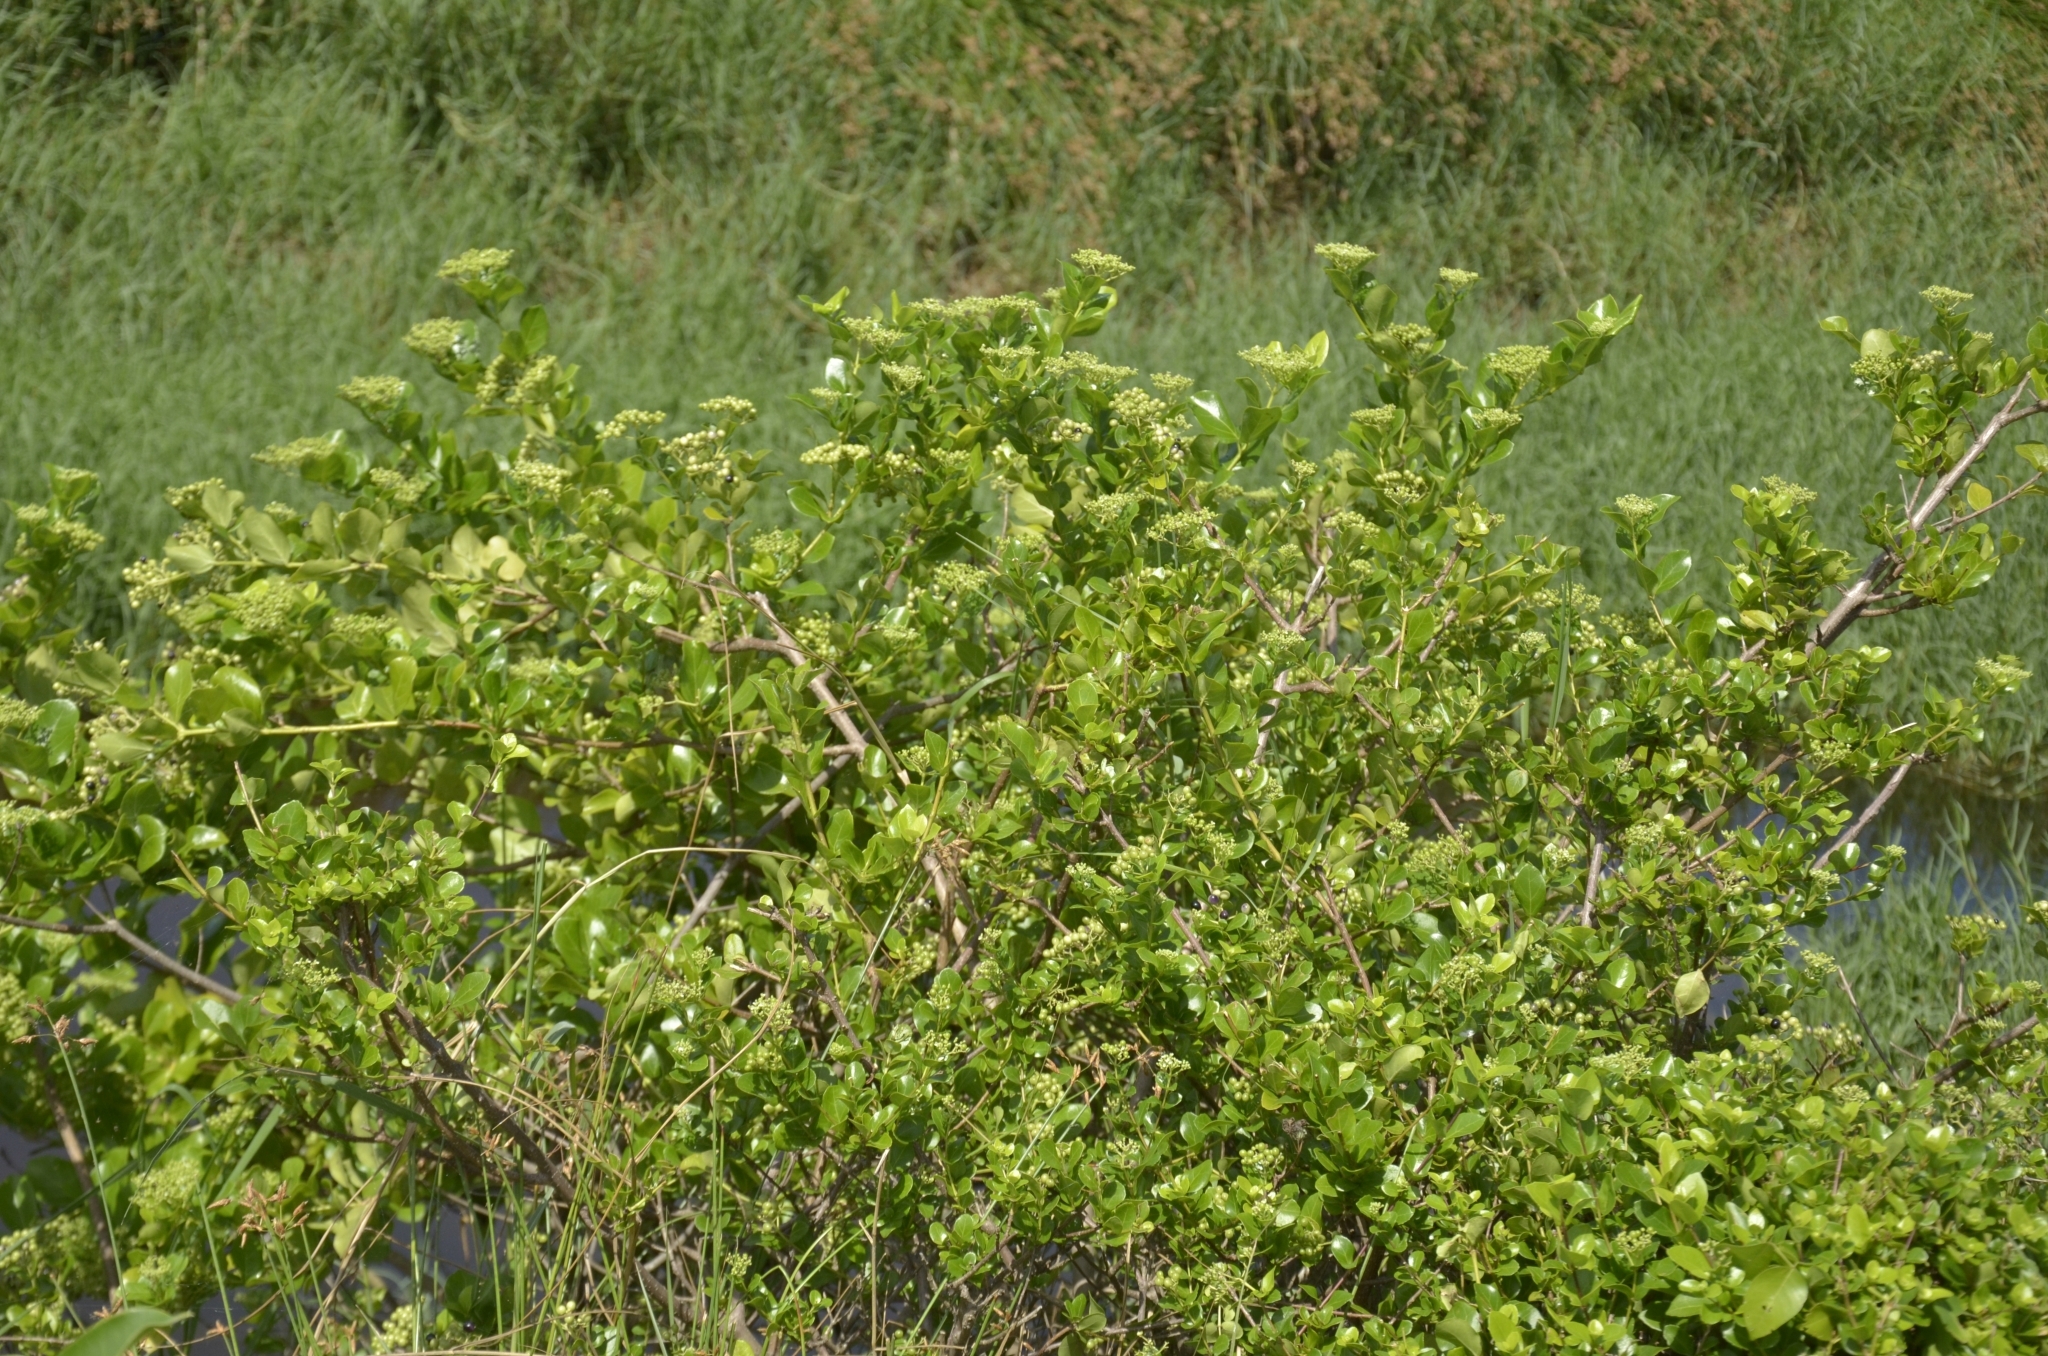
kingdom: Plantae
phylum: Tracheophyta
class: Magnoliopsida
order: Lamiales
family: Lamiaceae
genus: Premna
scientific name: Premna serratifolia
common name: Bastard guelder
